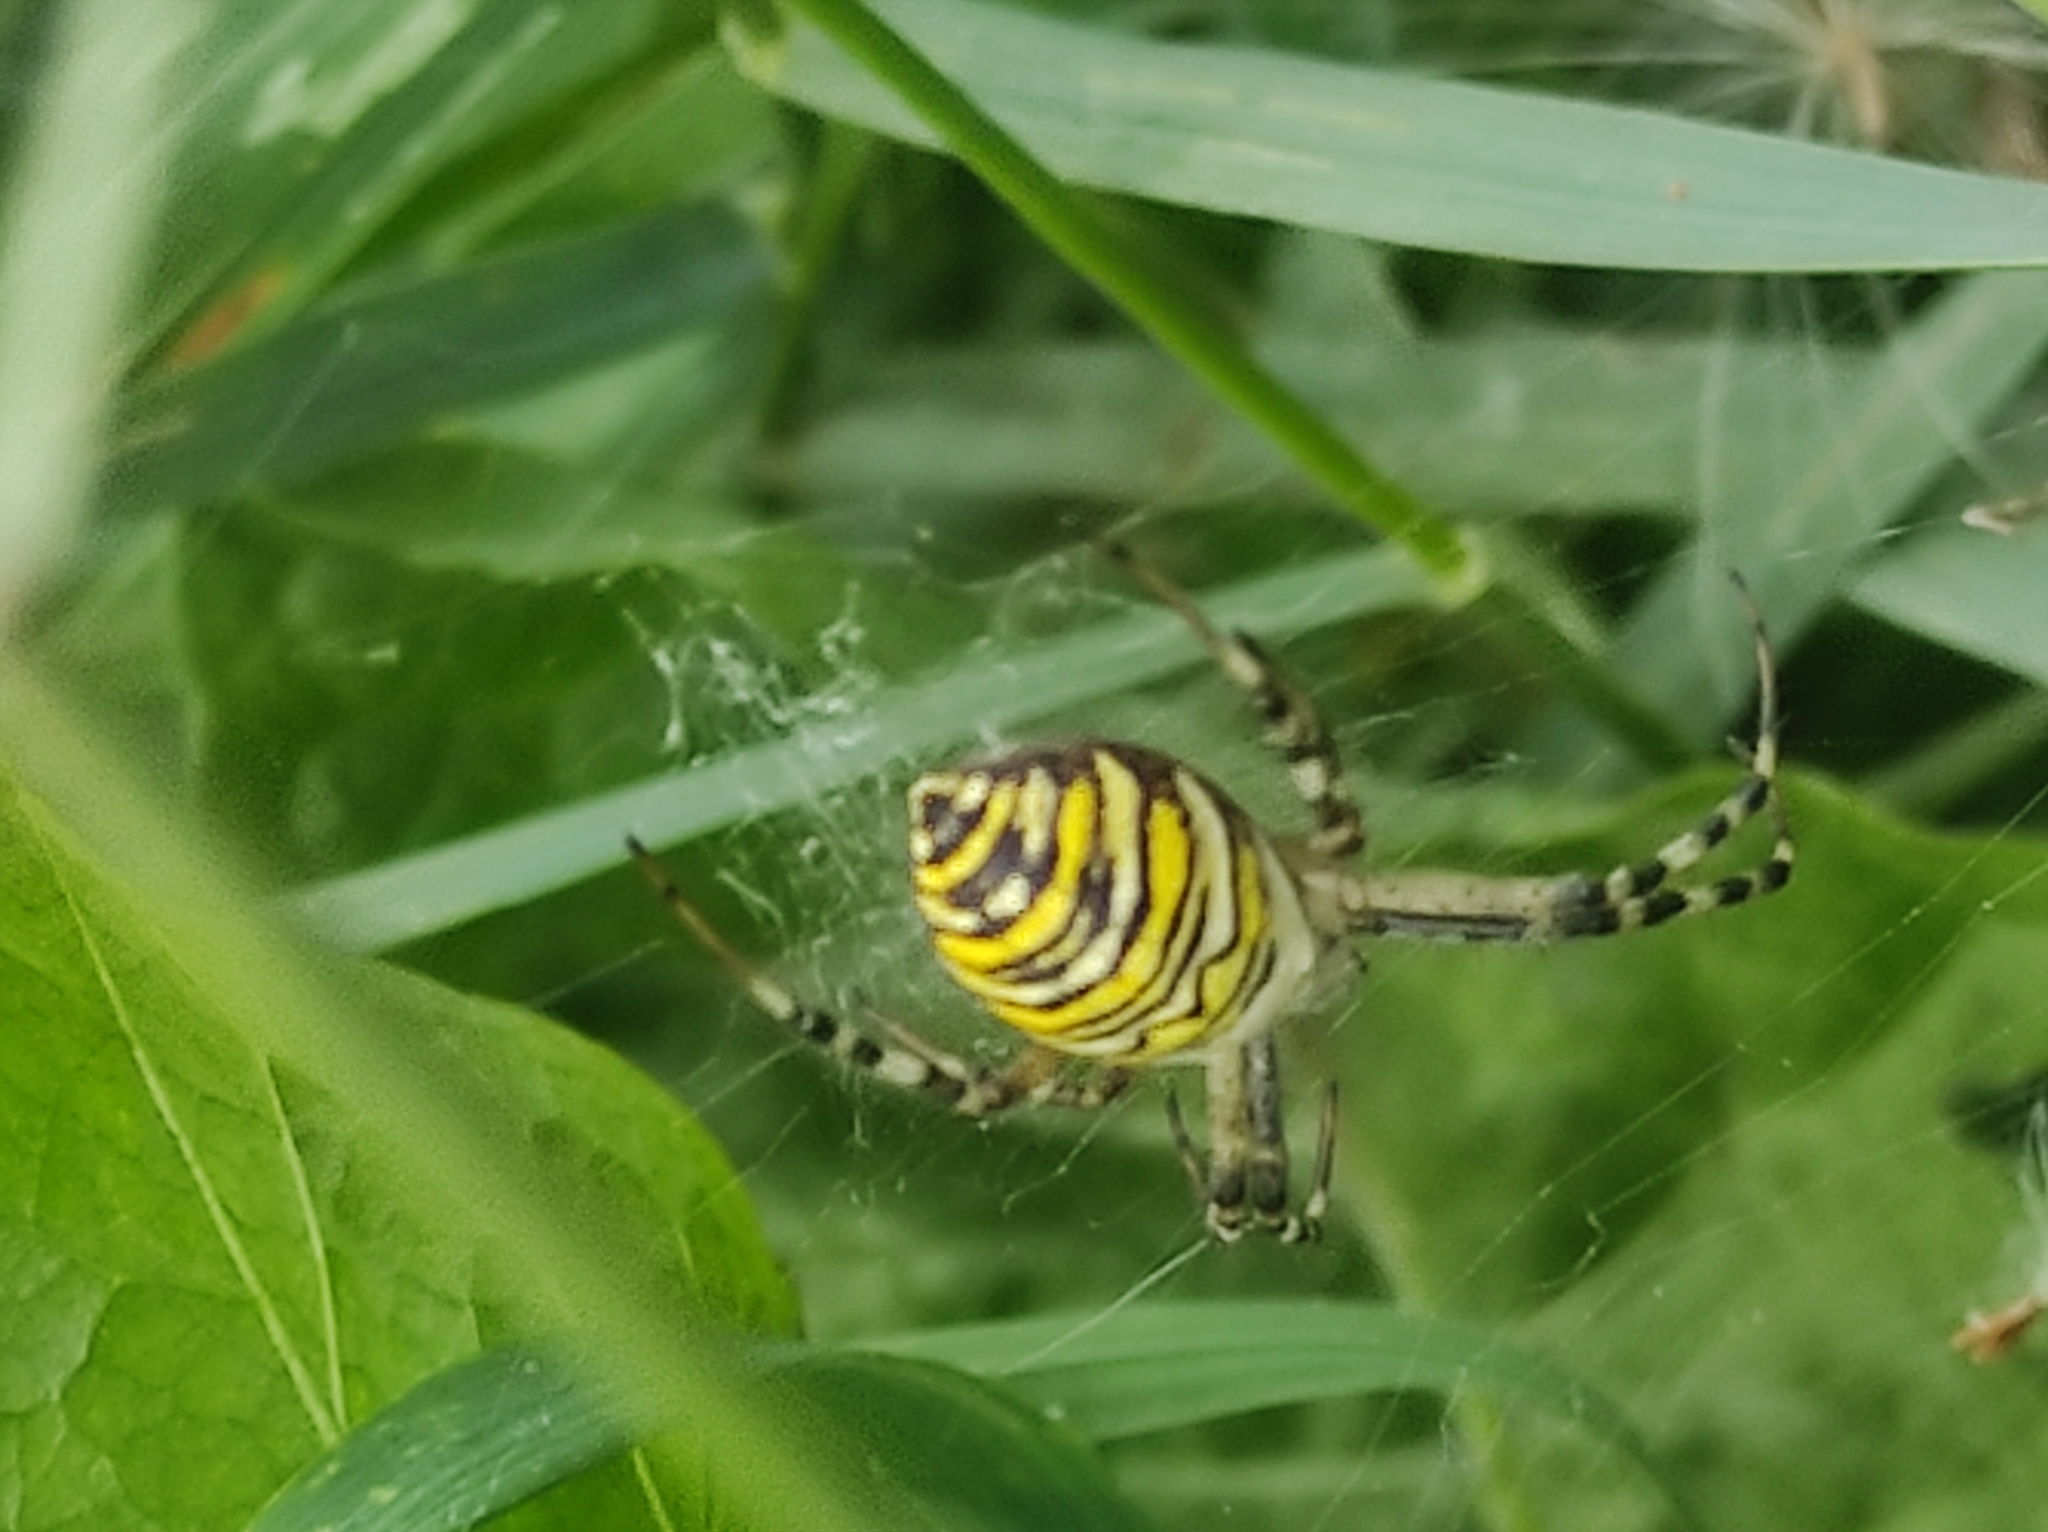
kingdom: Animalia
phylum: Arthropoda
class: Arachnida
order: Araneae
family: Araneidae
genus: Argiope
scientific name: Argiope bruennichi
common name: Wasp spider
